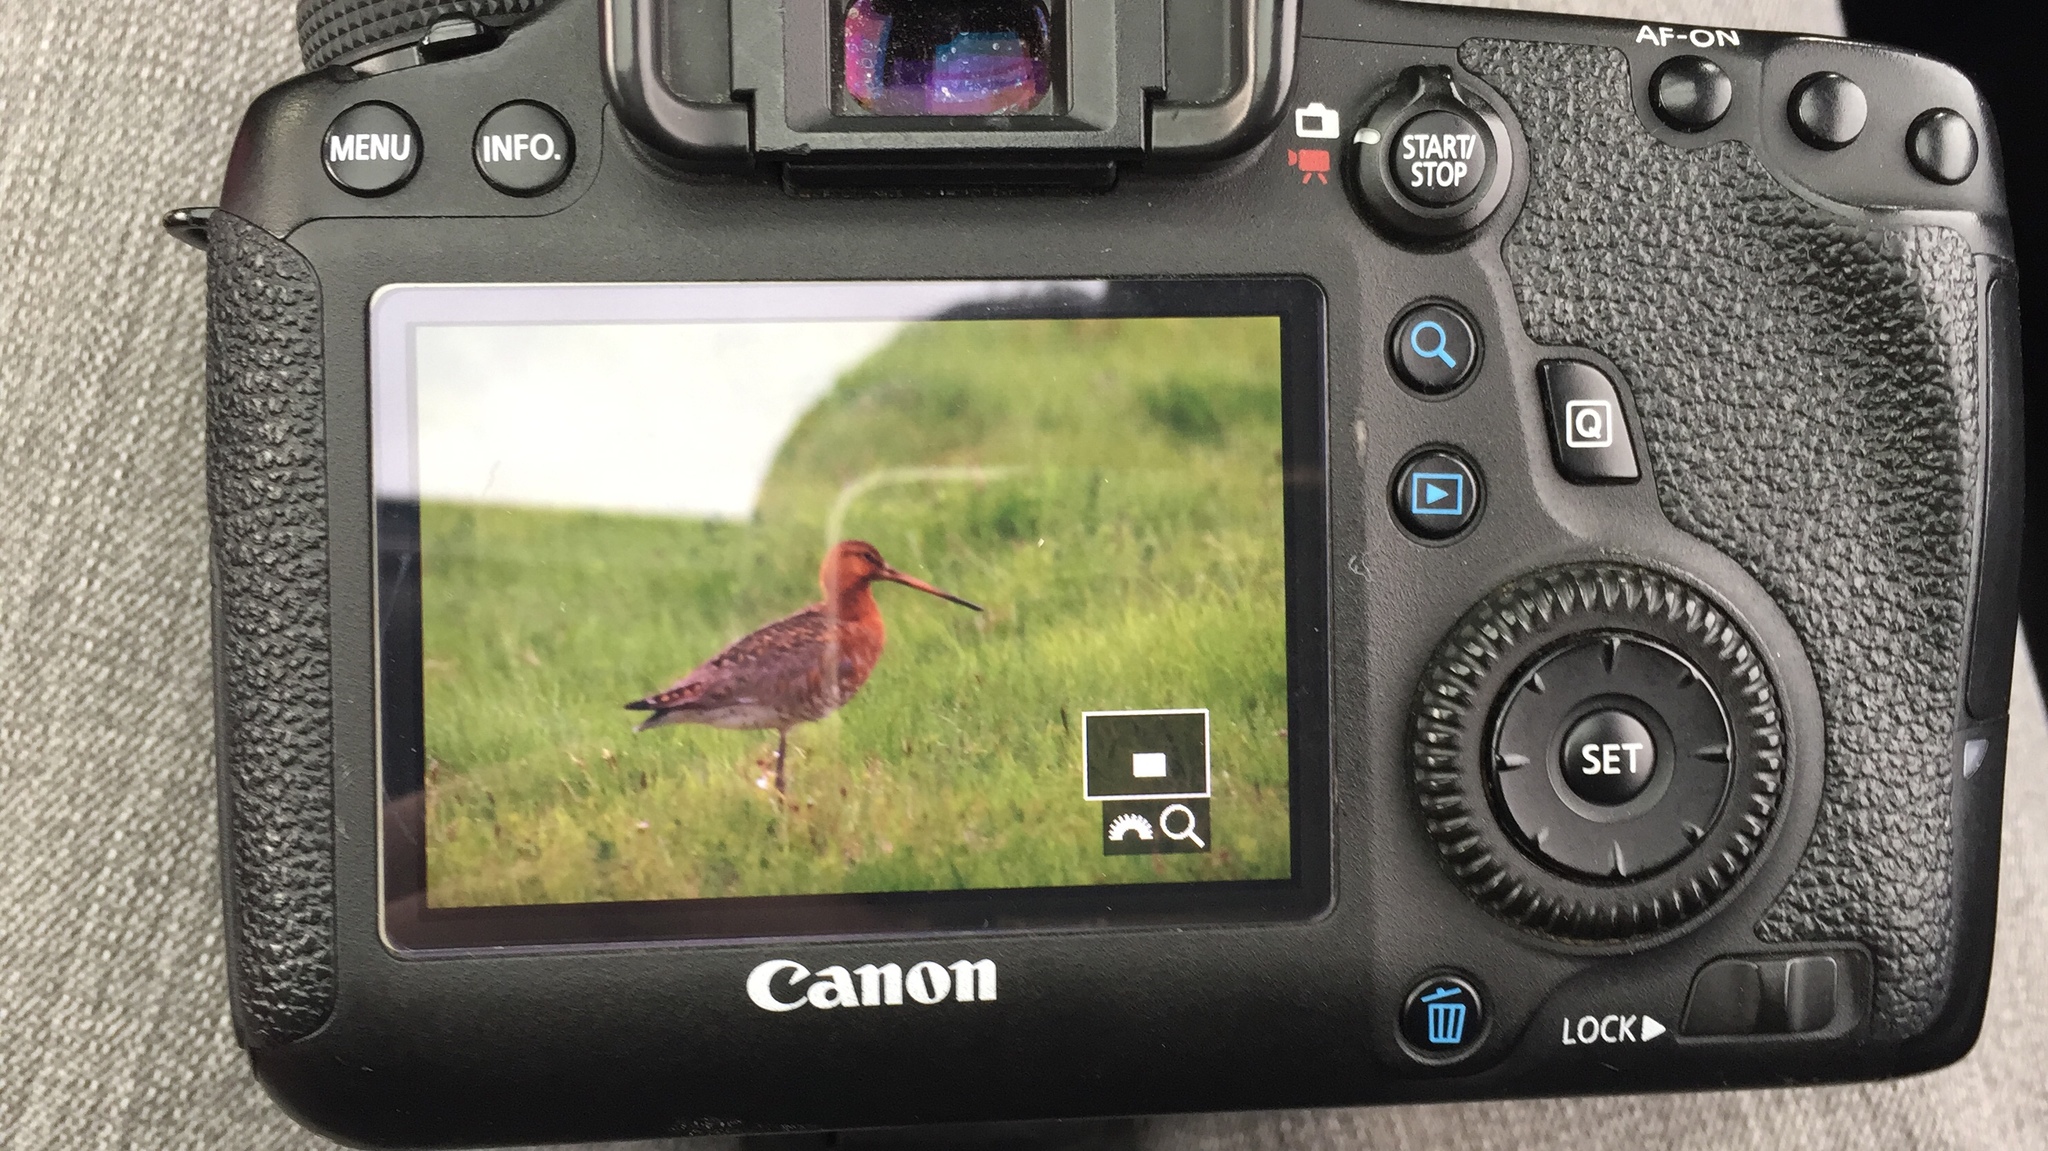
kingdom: Animalia
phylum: Chordata
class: Aves
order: Charadriiformes
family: Scolopacidae
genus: Limosa
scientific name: Limosa limosa
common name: Black-tailed godwit
